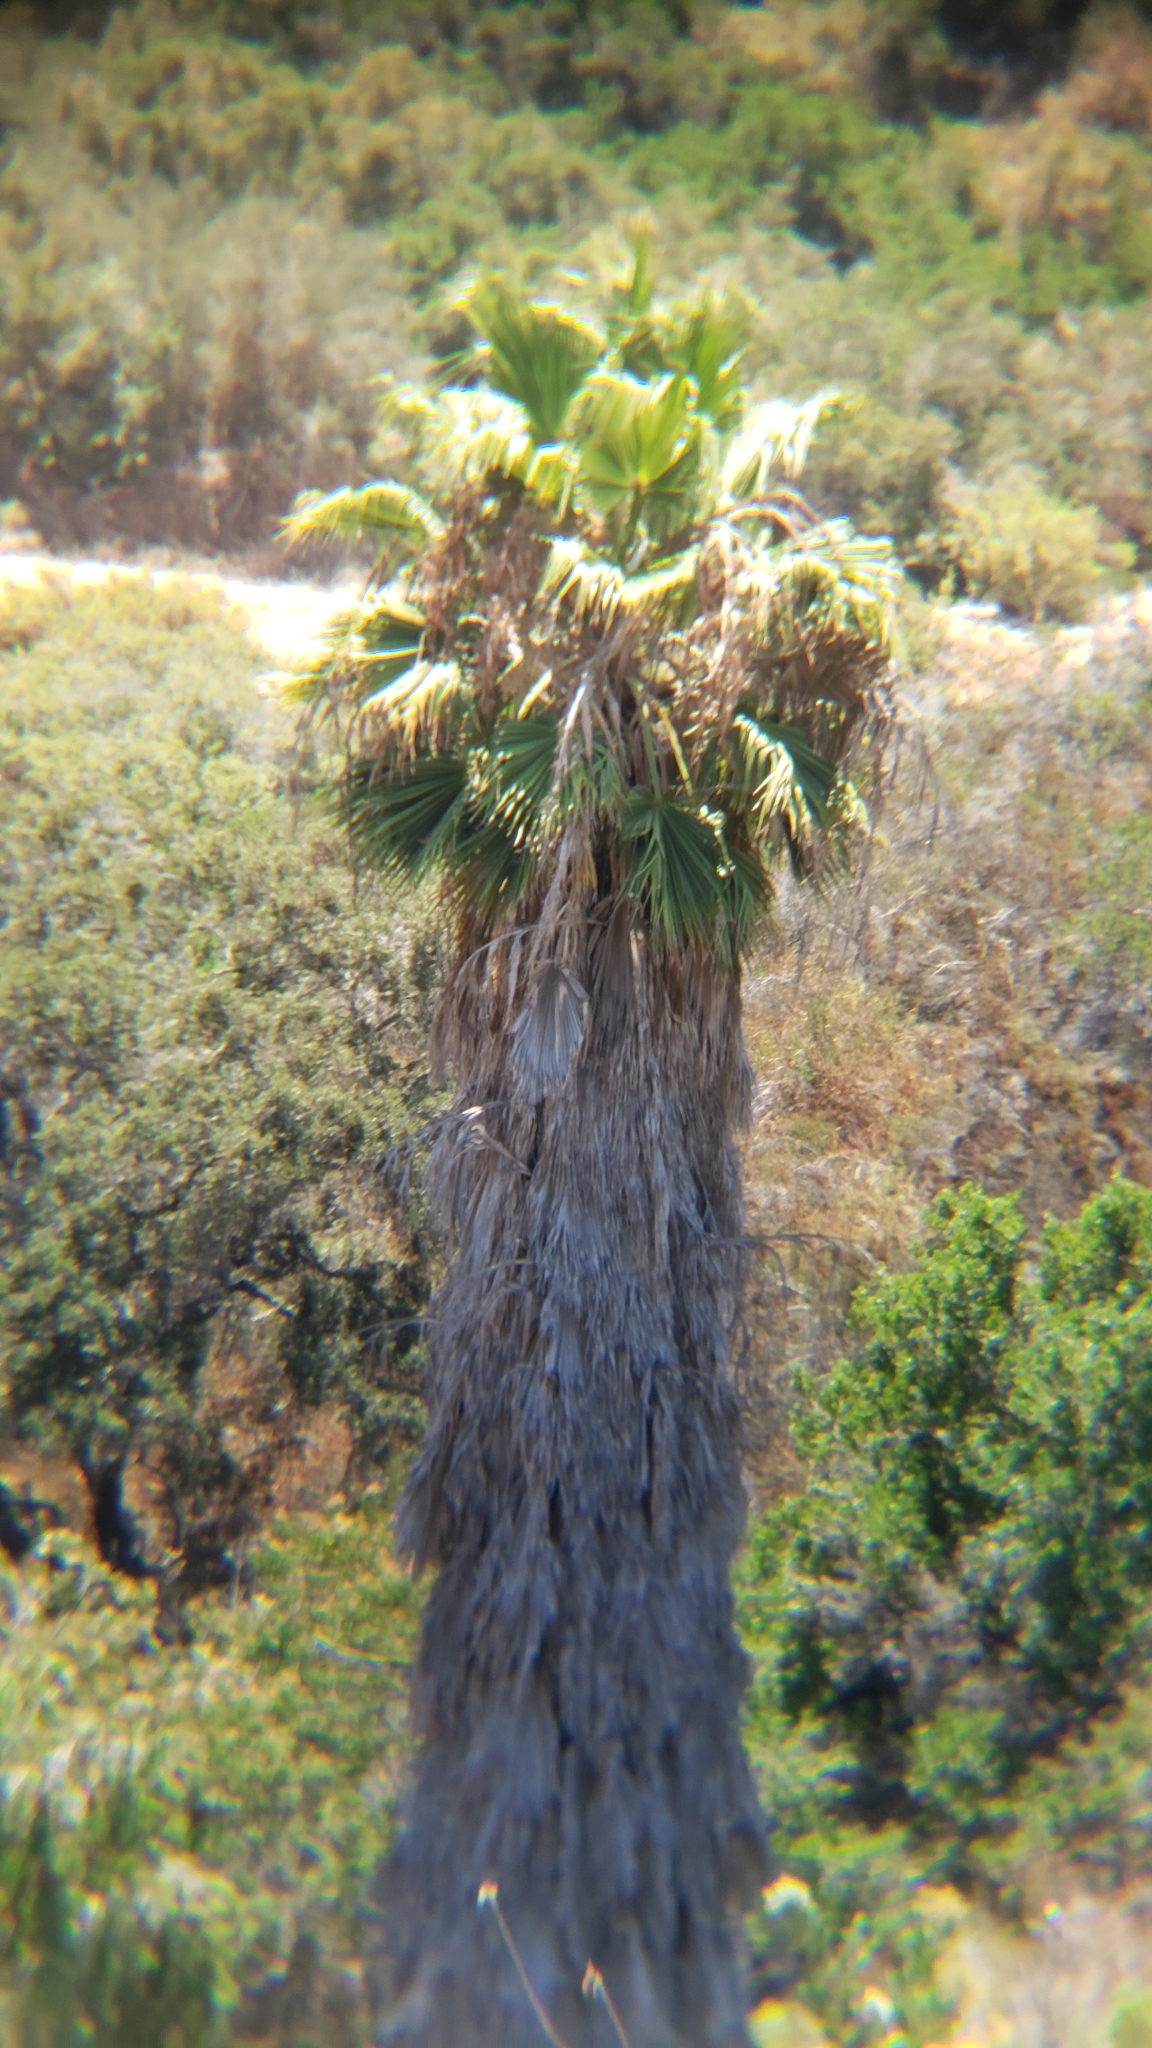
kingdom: Plantae
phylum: Tracheophyta
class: Liliopsida
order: Arecales
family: Arecaceae
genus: Washingtonia
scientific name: Washingtonia robusta
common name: Mexican fan palm
